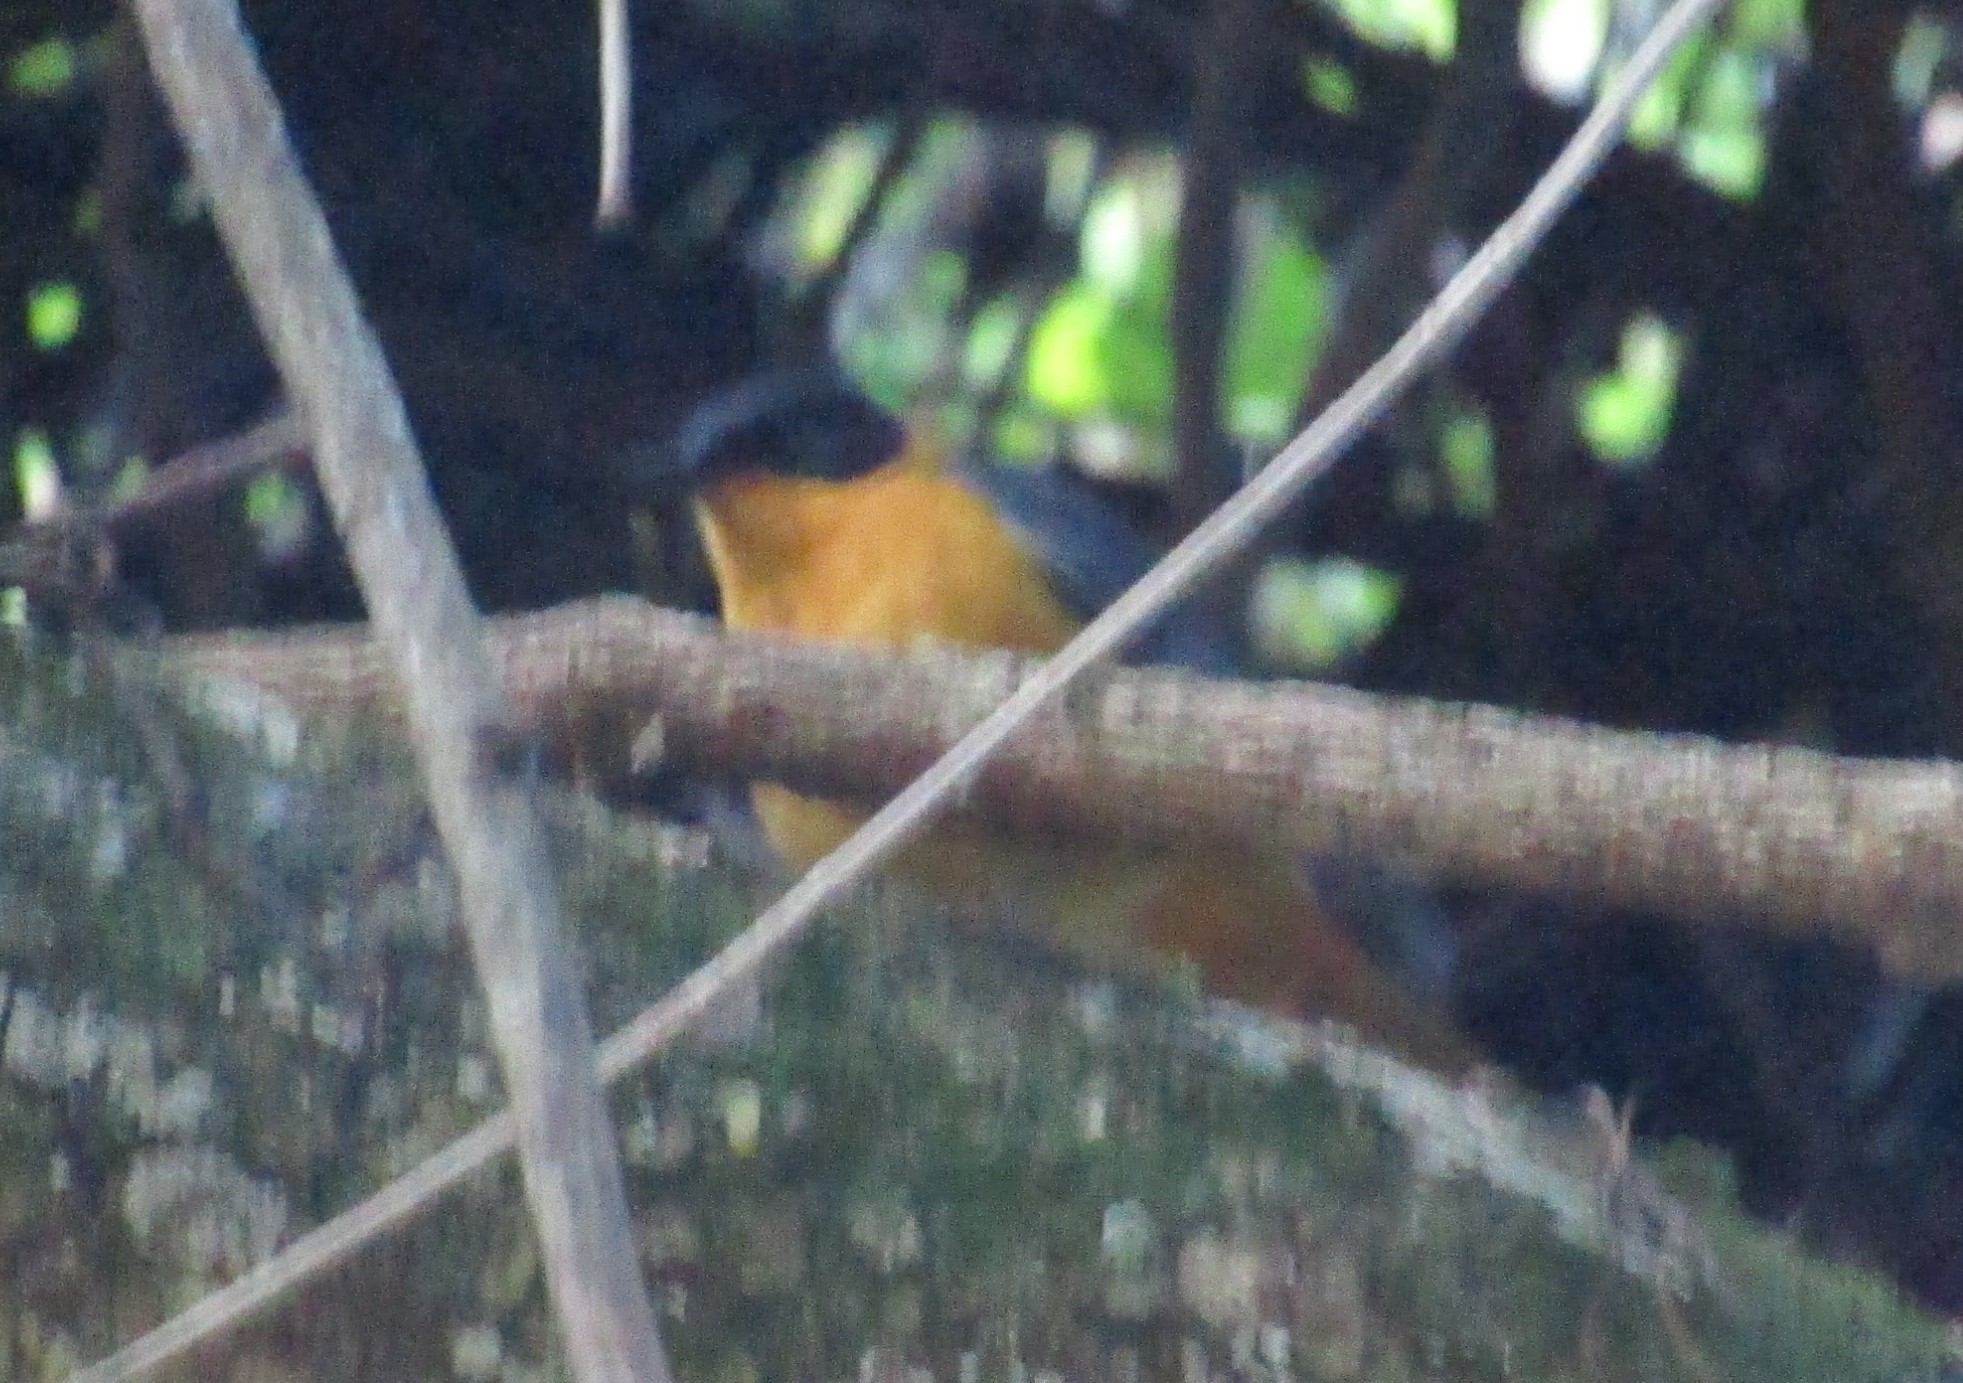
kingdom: Animalia
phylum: Chordata
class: Aves
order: Passeriformes
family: Muscicapidae
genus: Cossypha
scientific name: Cossypha dichroa
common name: Chorister robin-chat
